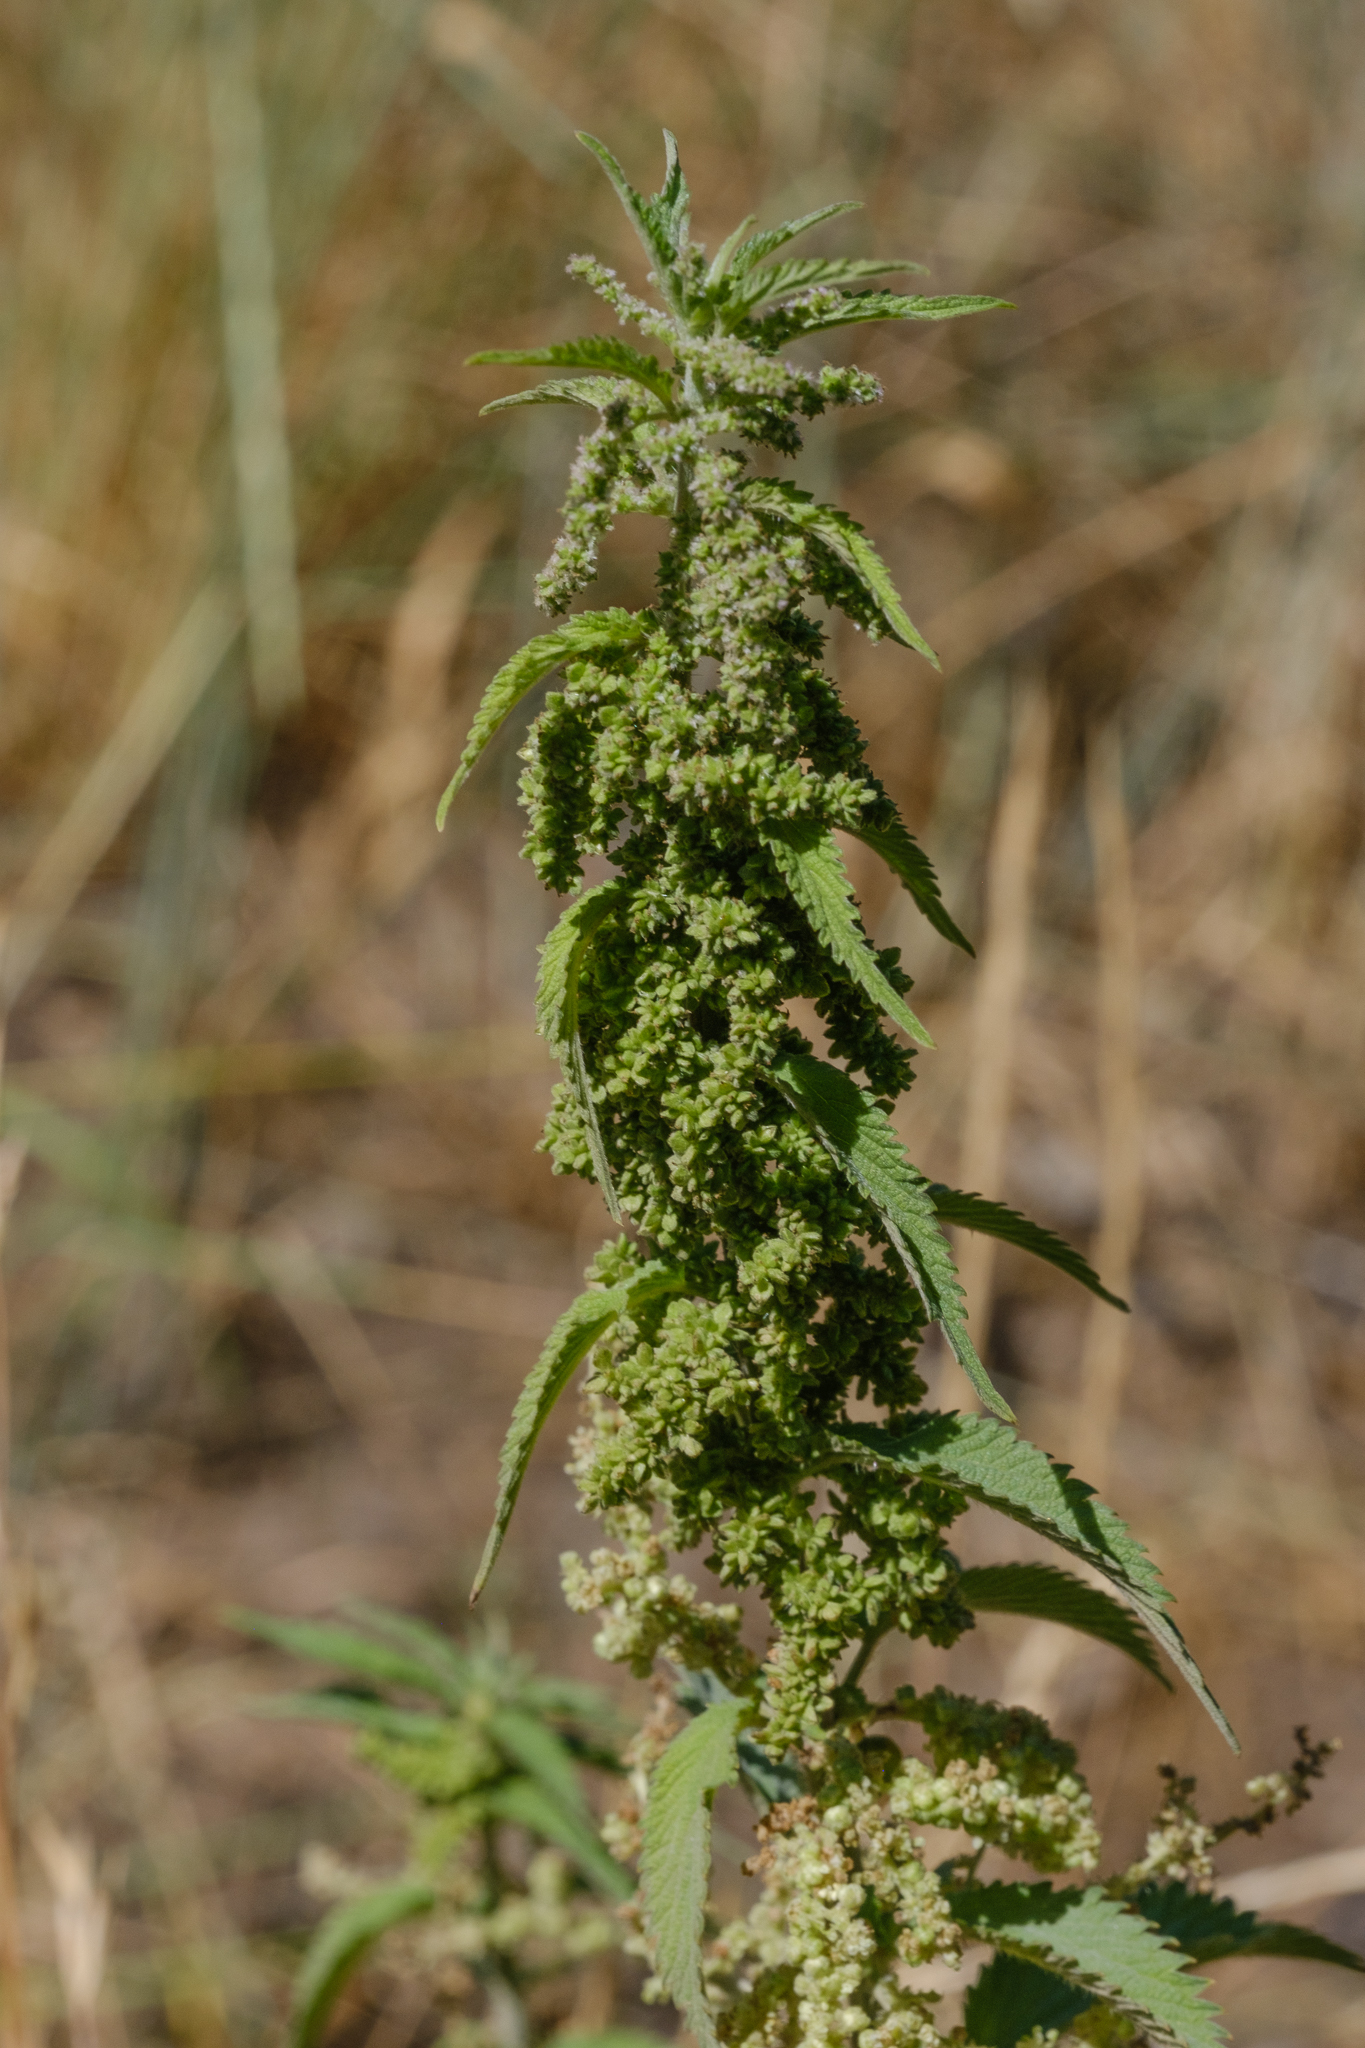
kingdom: Plantae
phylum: Tracheophyta
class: Magnoliopsida
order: Rosales
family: Urticaceae
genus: Urtica
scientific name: Urtica dioica
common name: Common nettle
